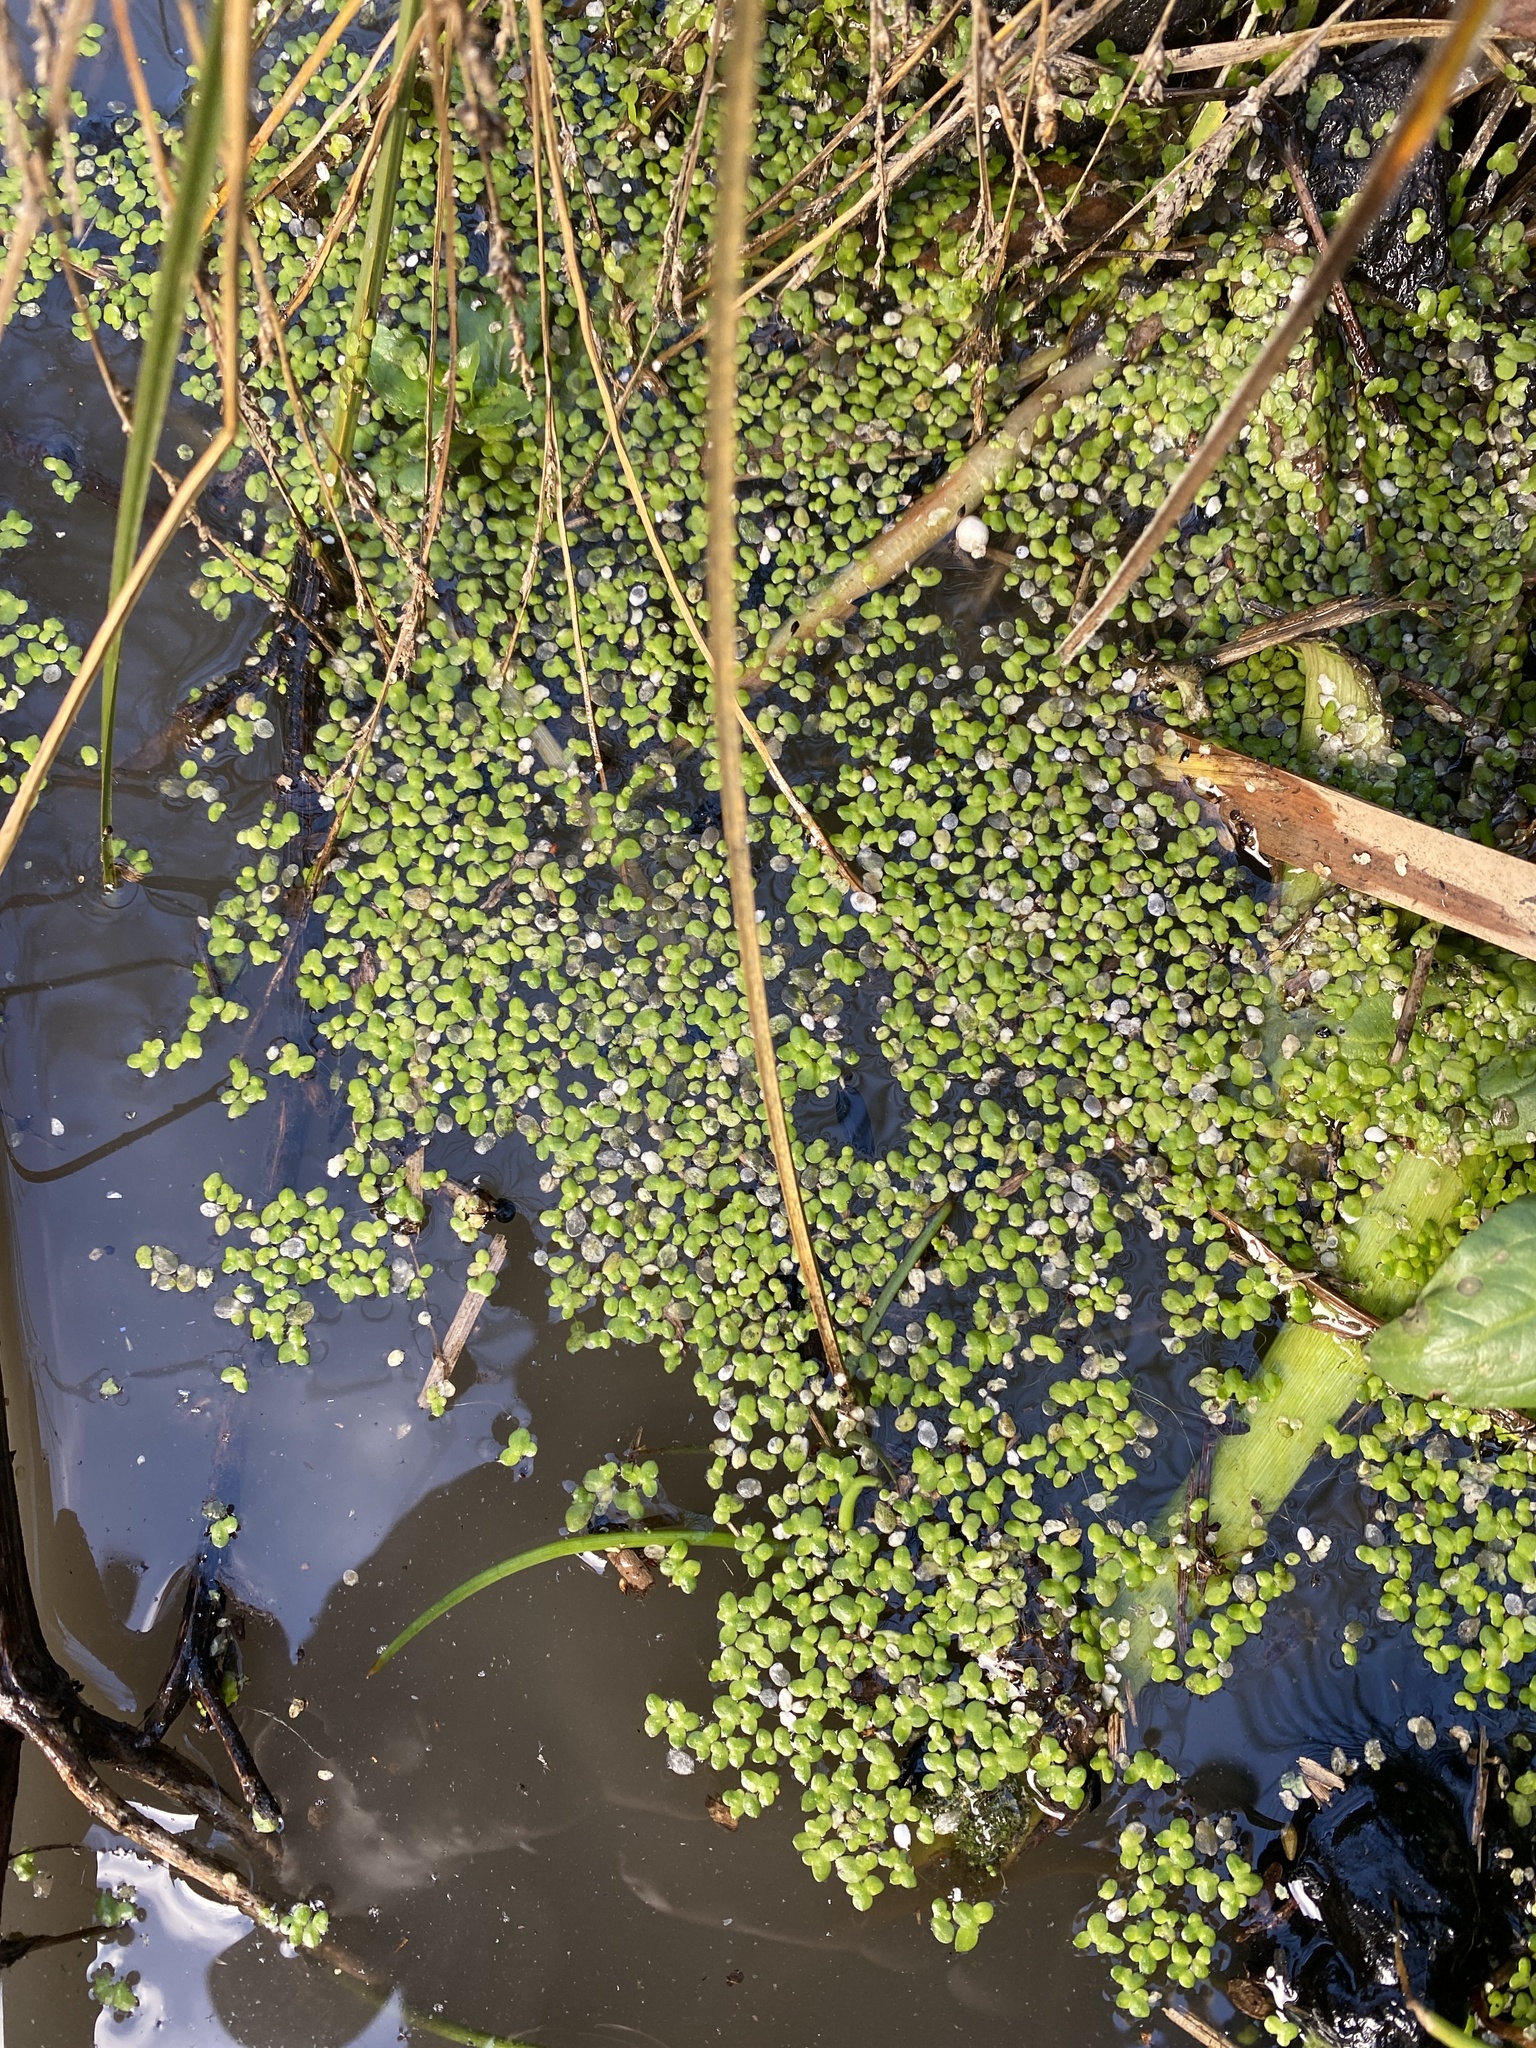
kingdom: Plantae
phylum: Tracheophyta
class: Liliopsida
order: Alismatales
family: Araceae
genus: Lemna
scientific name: Lemna disperma
